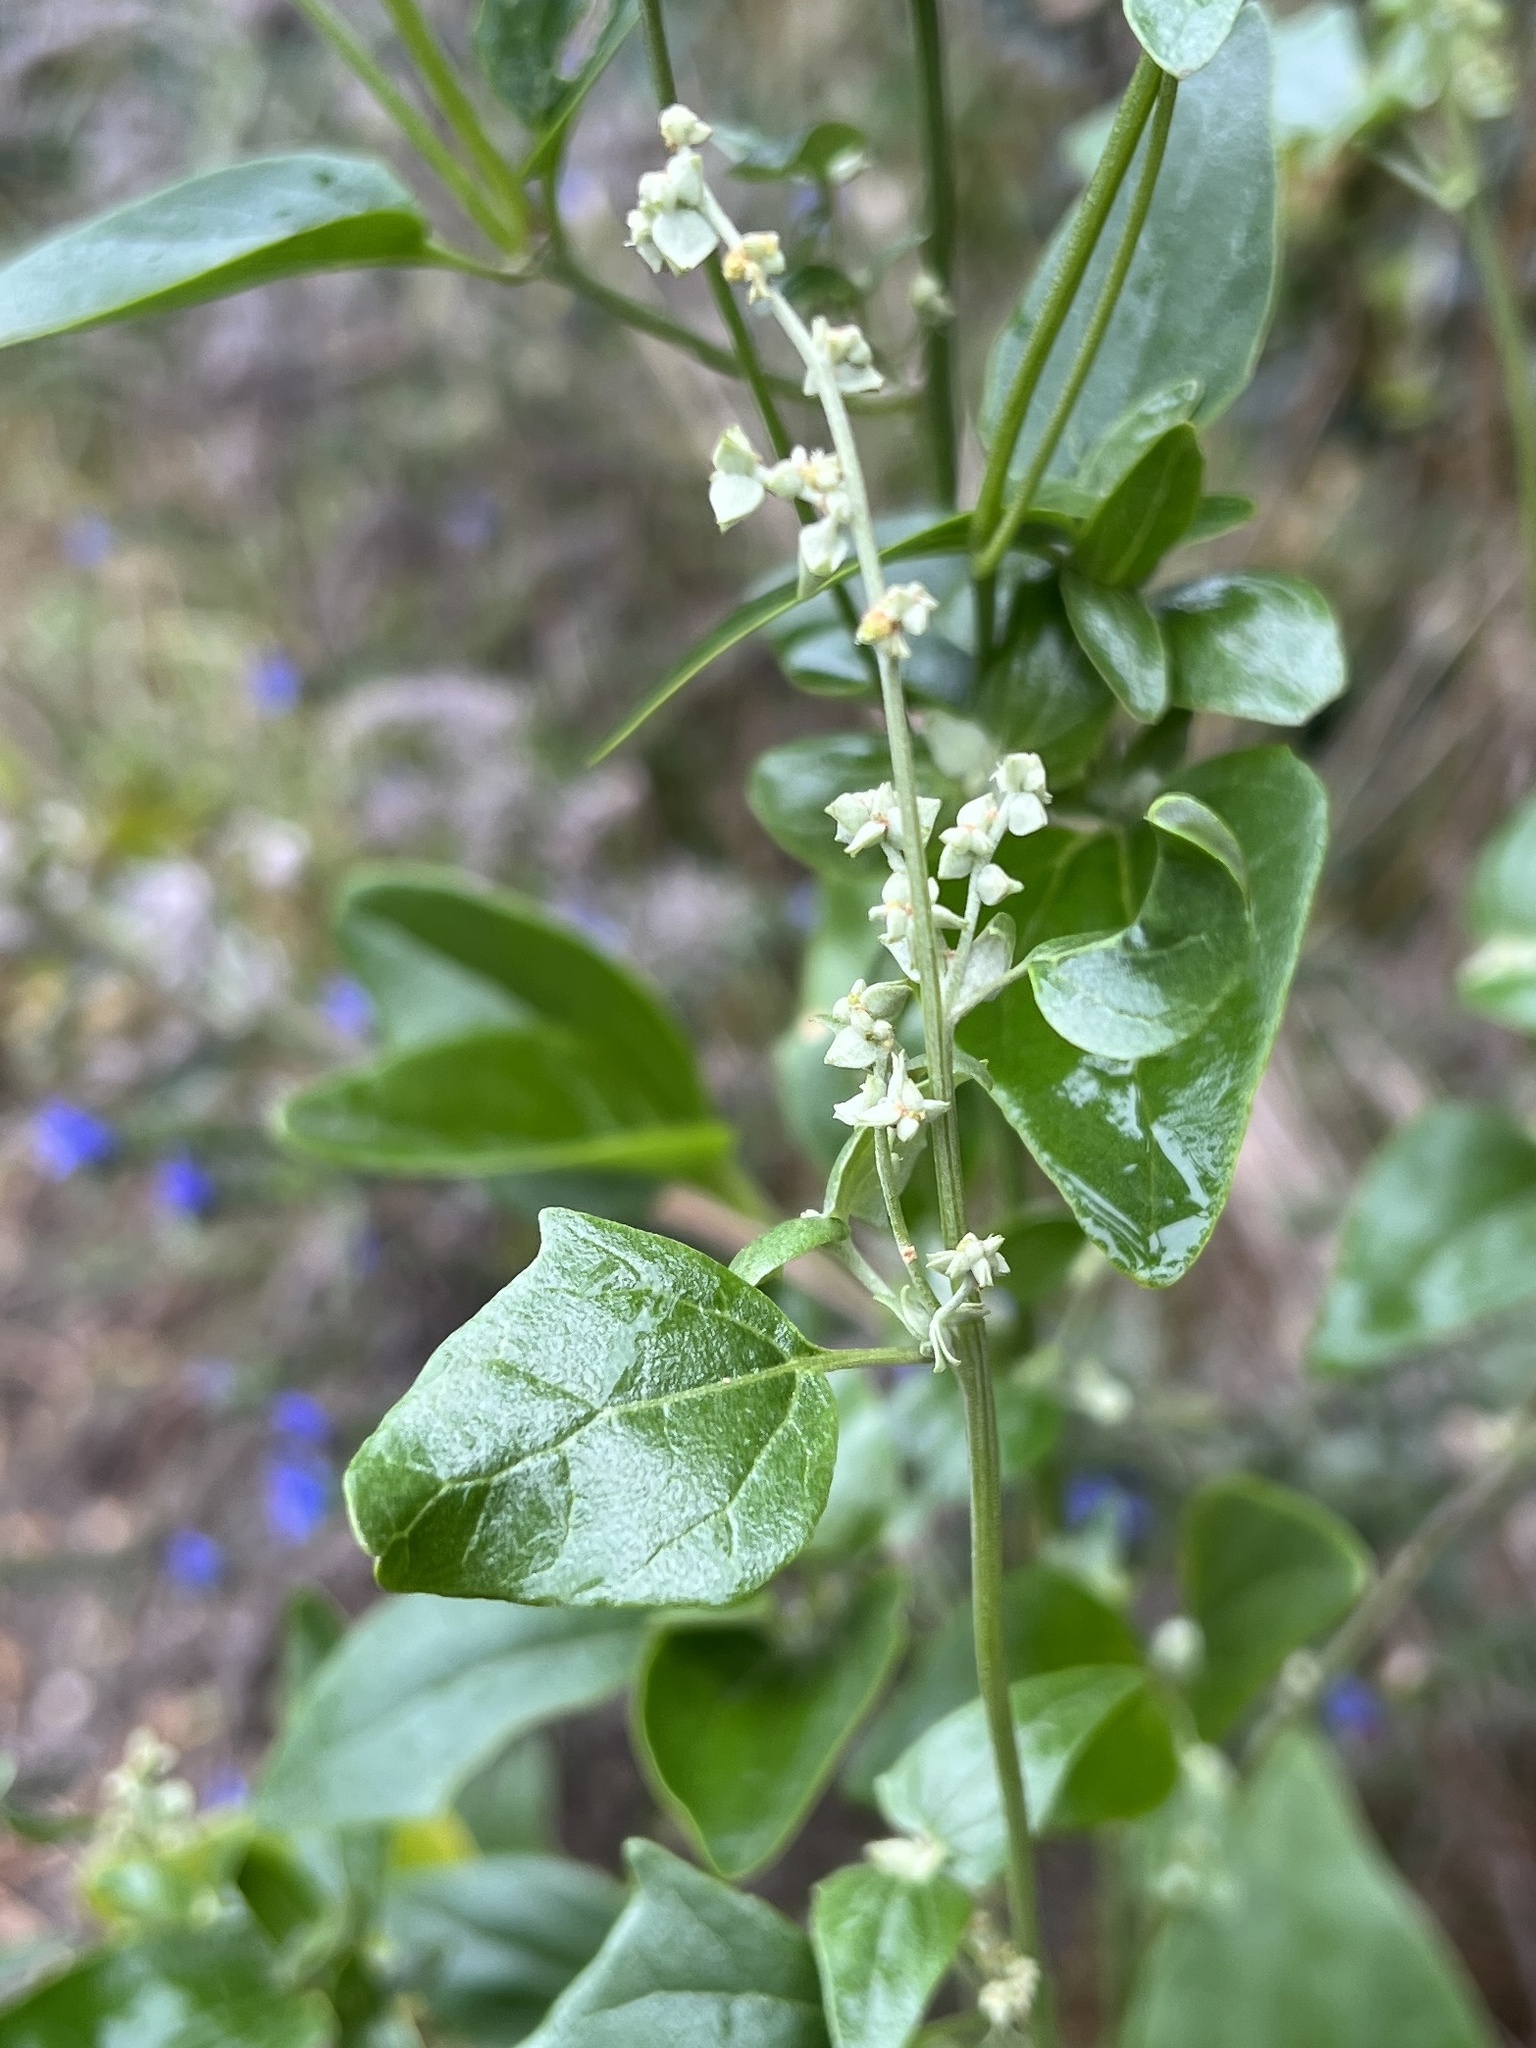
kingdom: Plantae
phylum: Tracheophyta
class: Magnoliopsida
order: Caryophyllales
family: Amaranthaceae
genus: Atriplex
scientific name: Atriplex sagittata
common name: Purple orache
